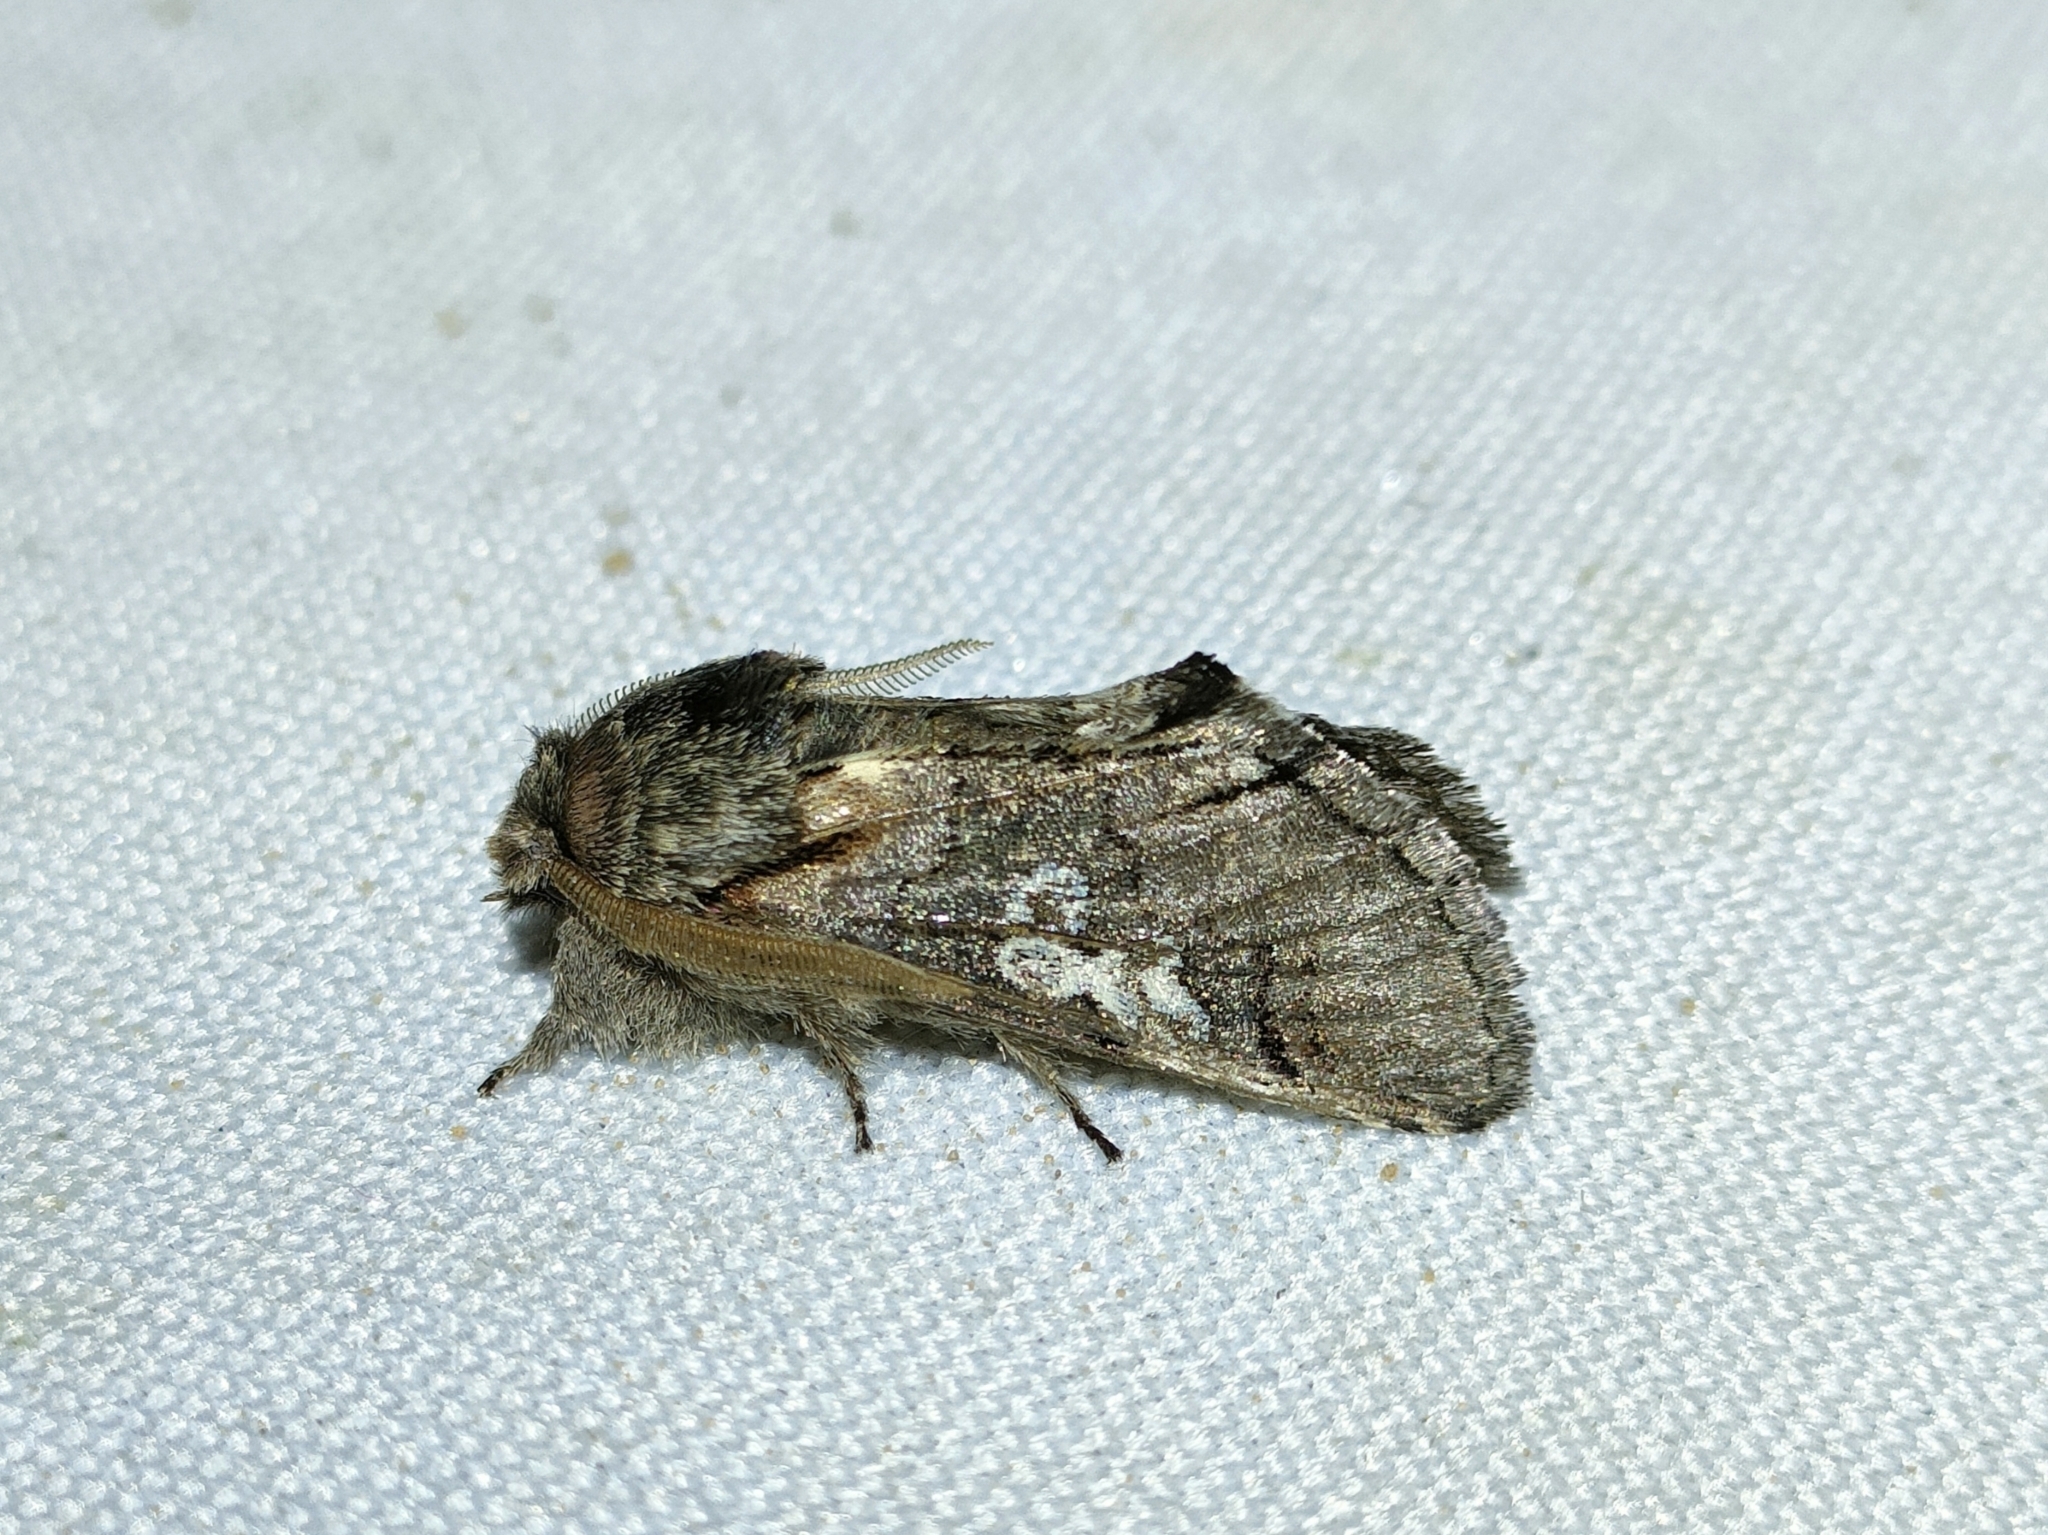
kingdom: Animalia
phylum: Arthropoda
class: Insecta
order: Lepidoptera
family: Noctuidae
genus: Diloba
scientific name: Diloba caeruleocephala
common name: Figure of eight
